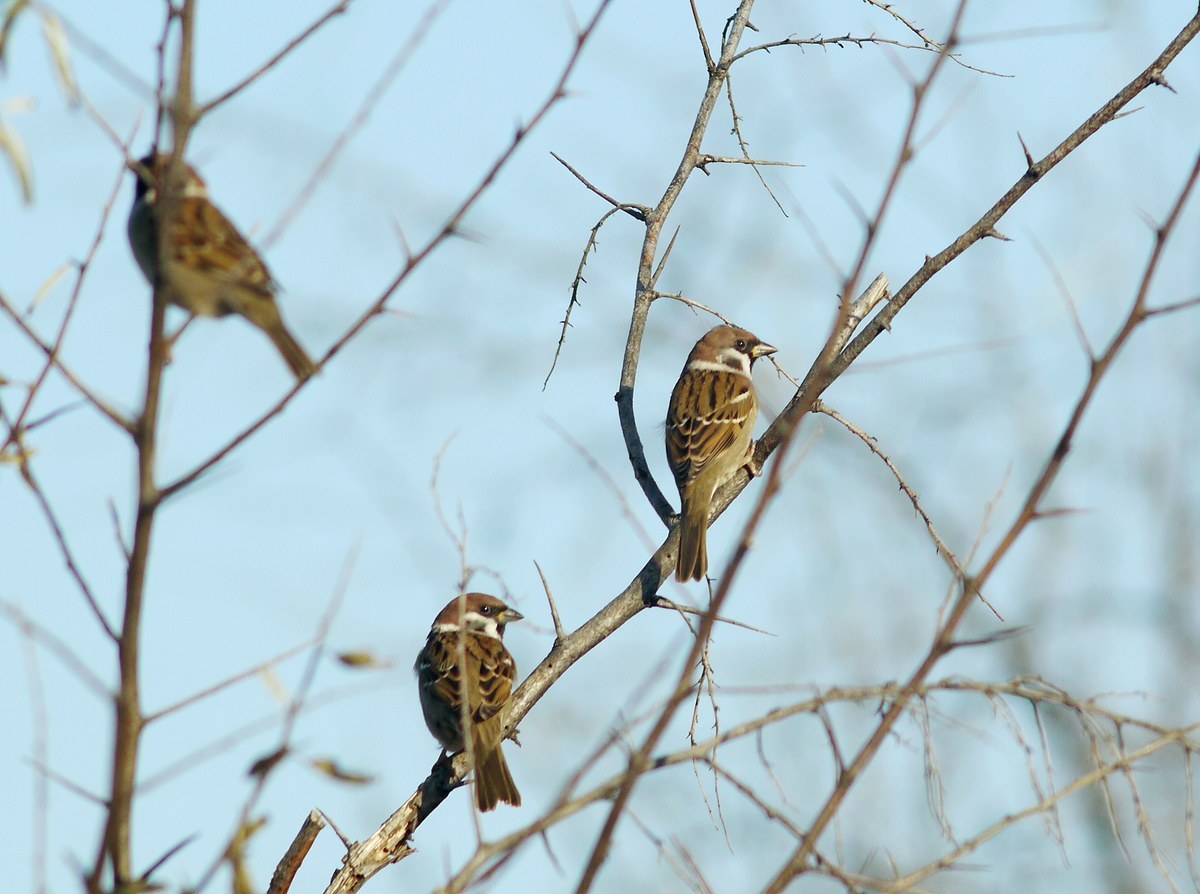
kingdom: Animalia
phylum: Chordata
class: Aves
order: Passeriformes
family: Passeridae
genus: Passer
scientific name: Passer montanus
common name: Eurasian tree sparrow
